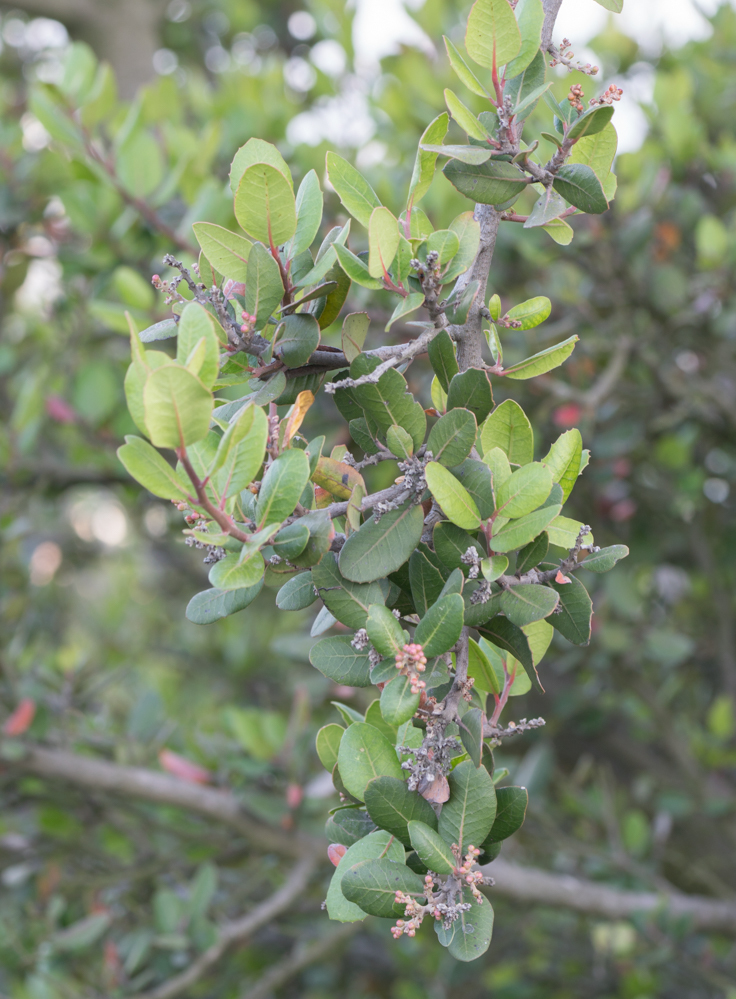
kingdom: Plantae
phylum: Tracheophyta
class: Magnoliopsida
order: Sapindales
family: Anacardiaceae
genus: Rhus
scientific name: Rhus integrifolia
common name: Lemonade sumac
